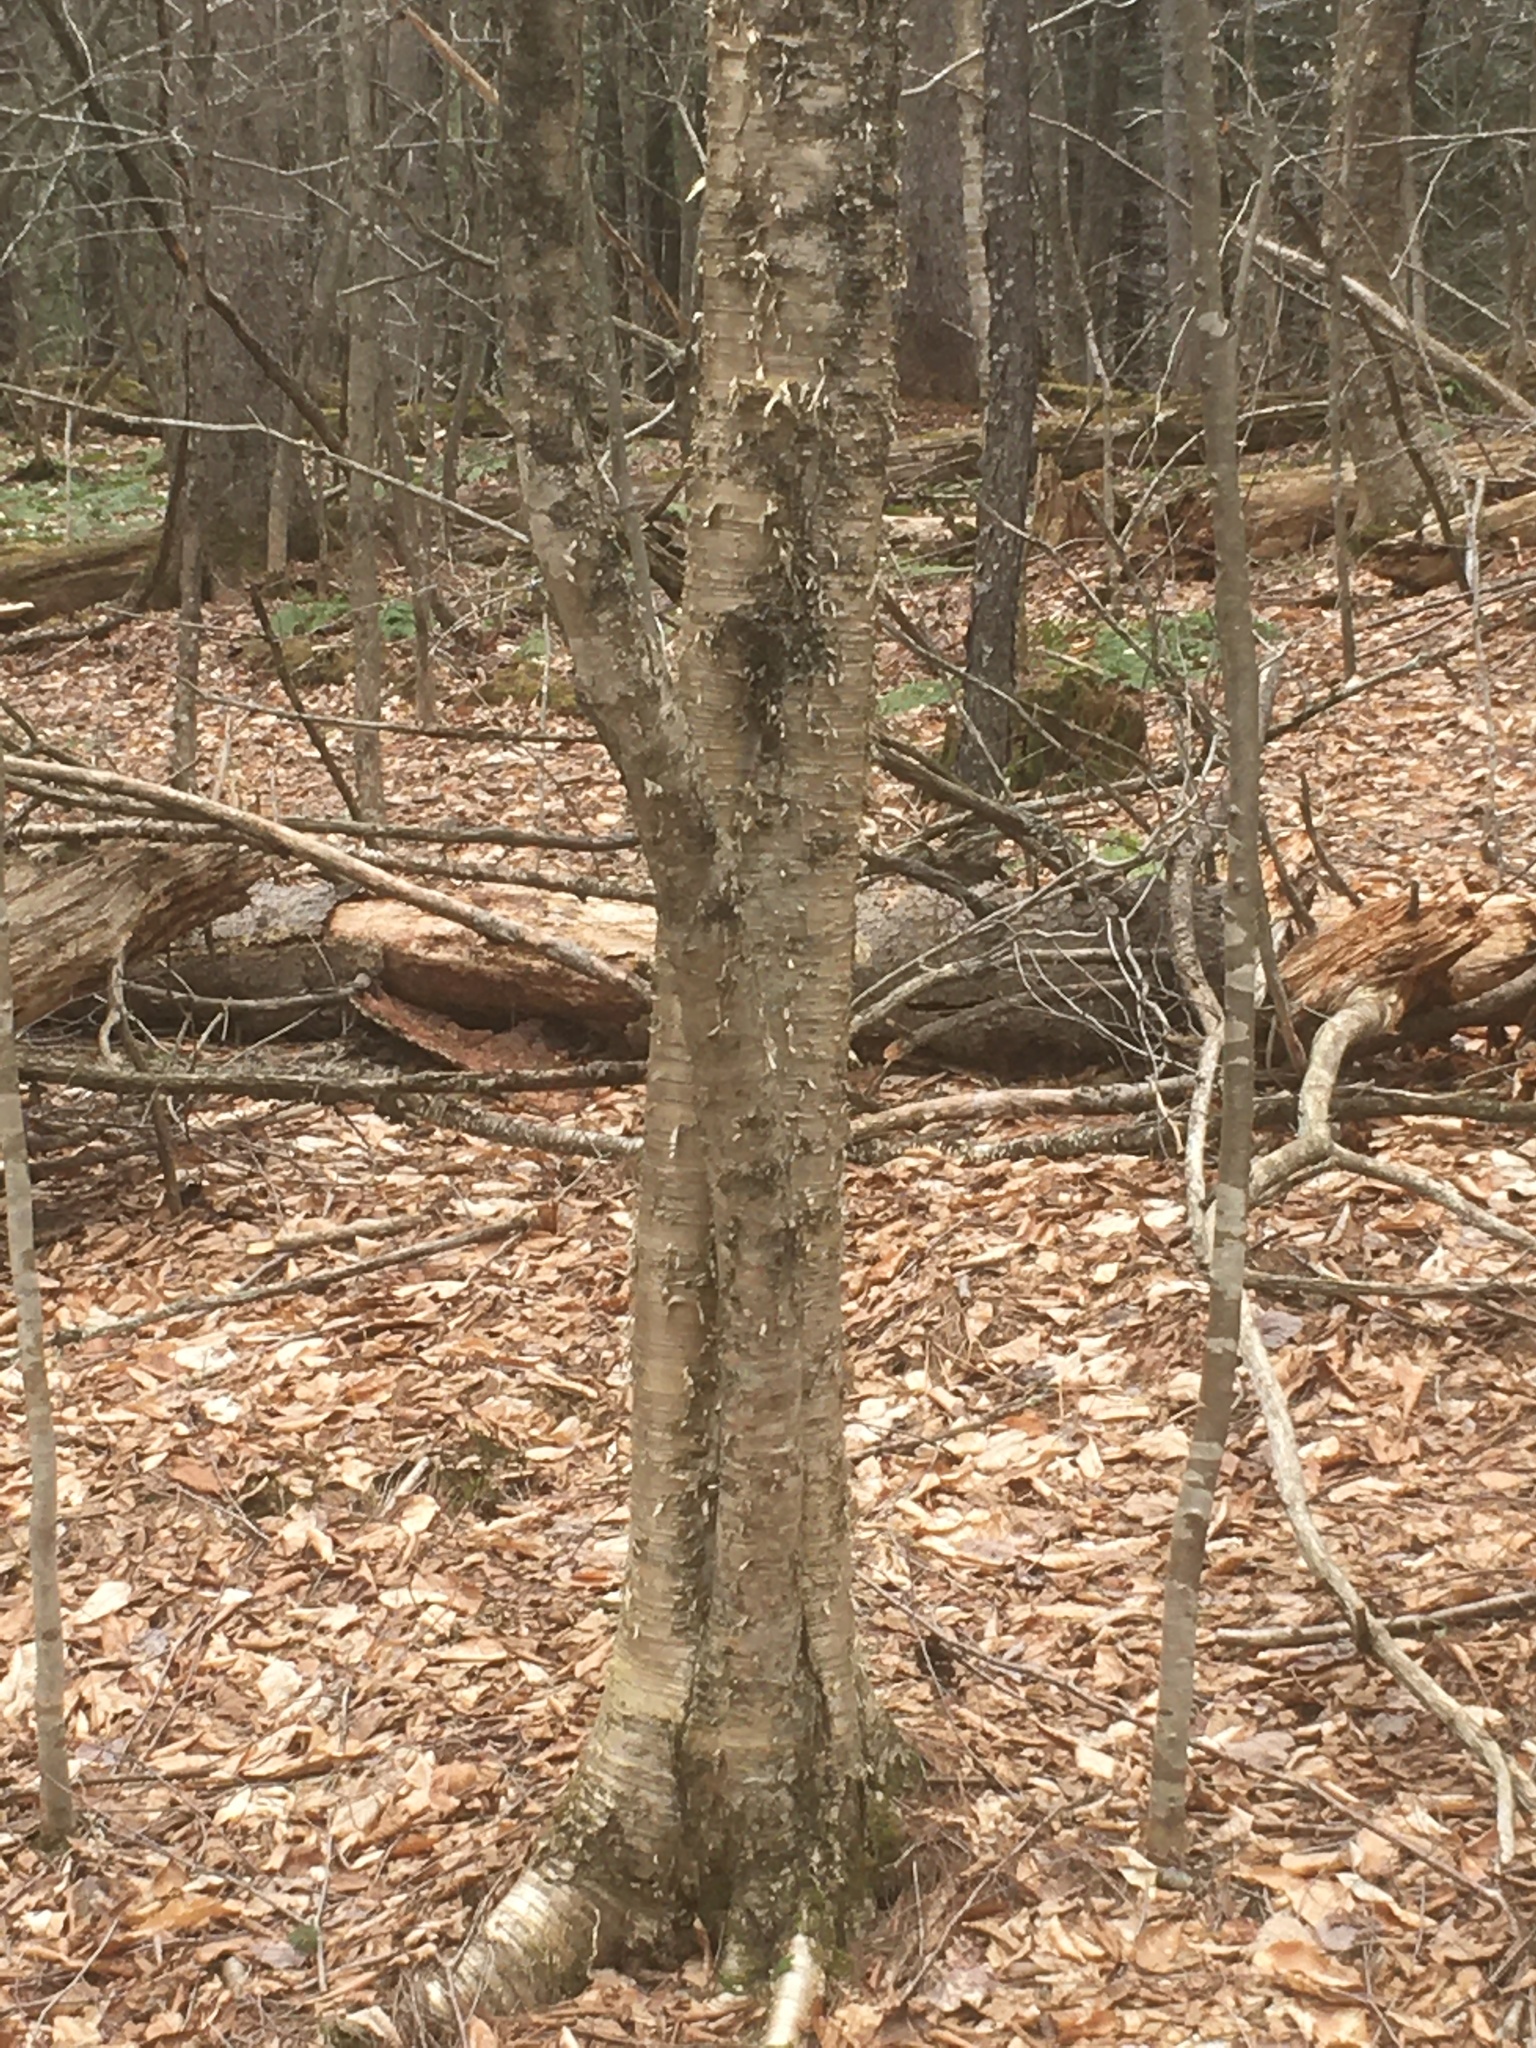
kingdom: Plantae
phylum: Tracheophyta
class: Magnoliopsida
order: Fagales
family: Betulaceae
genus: Betula
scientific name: Betula alleghaniensis
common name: Yellow birch
